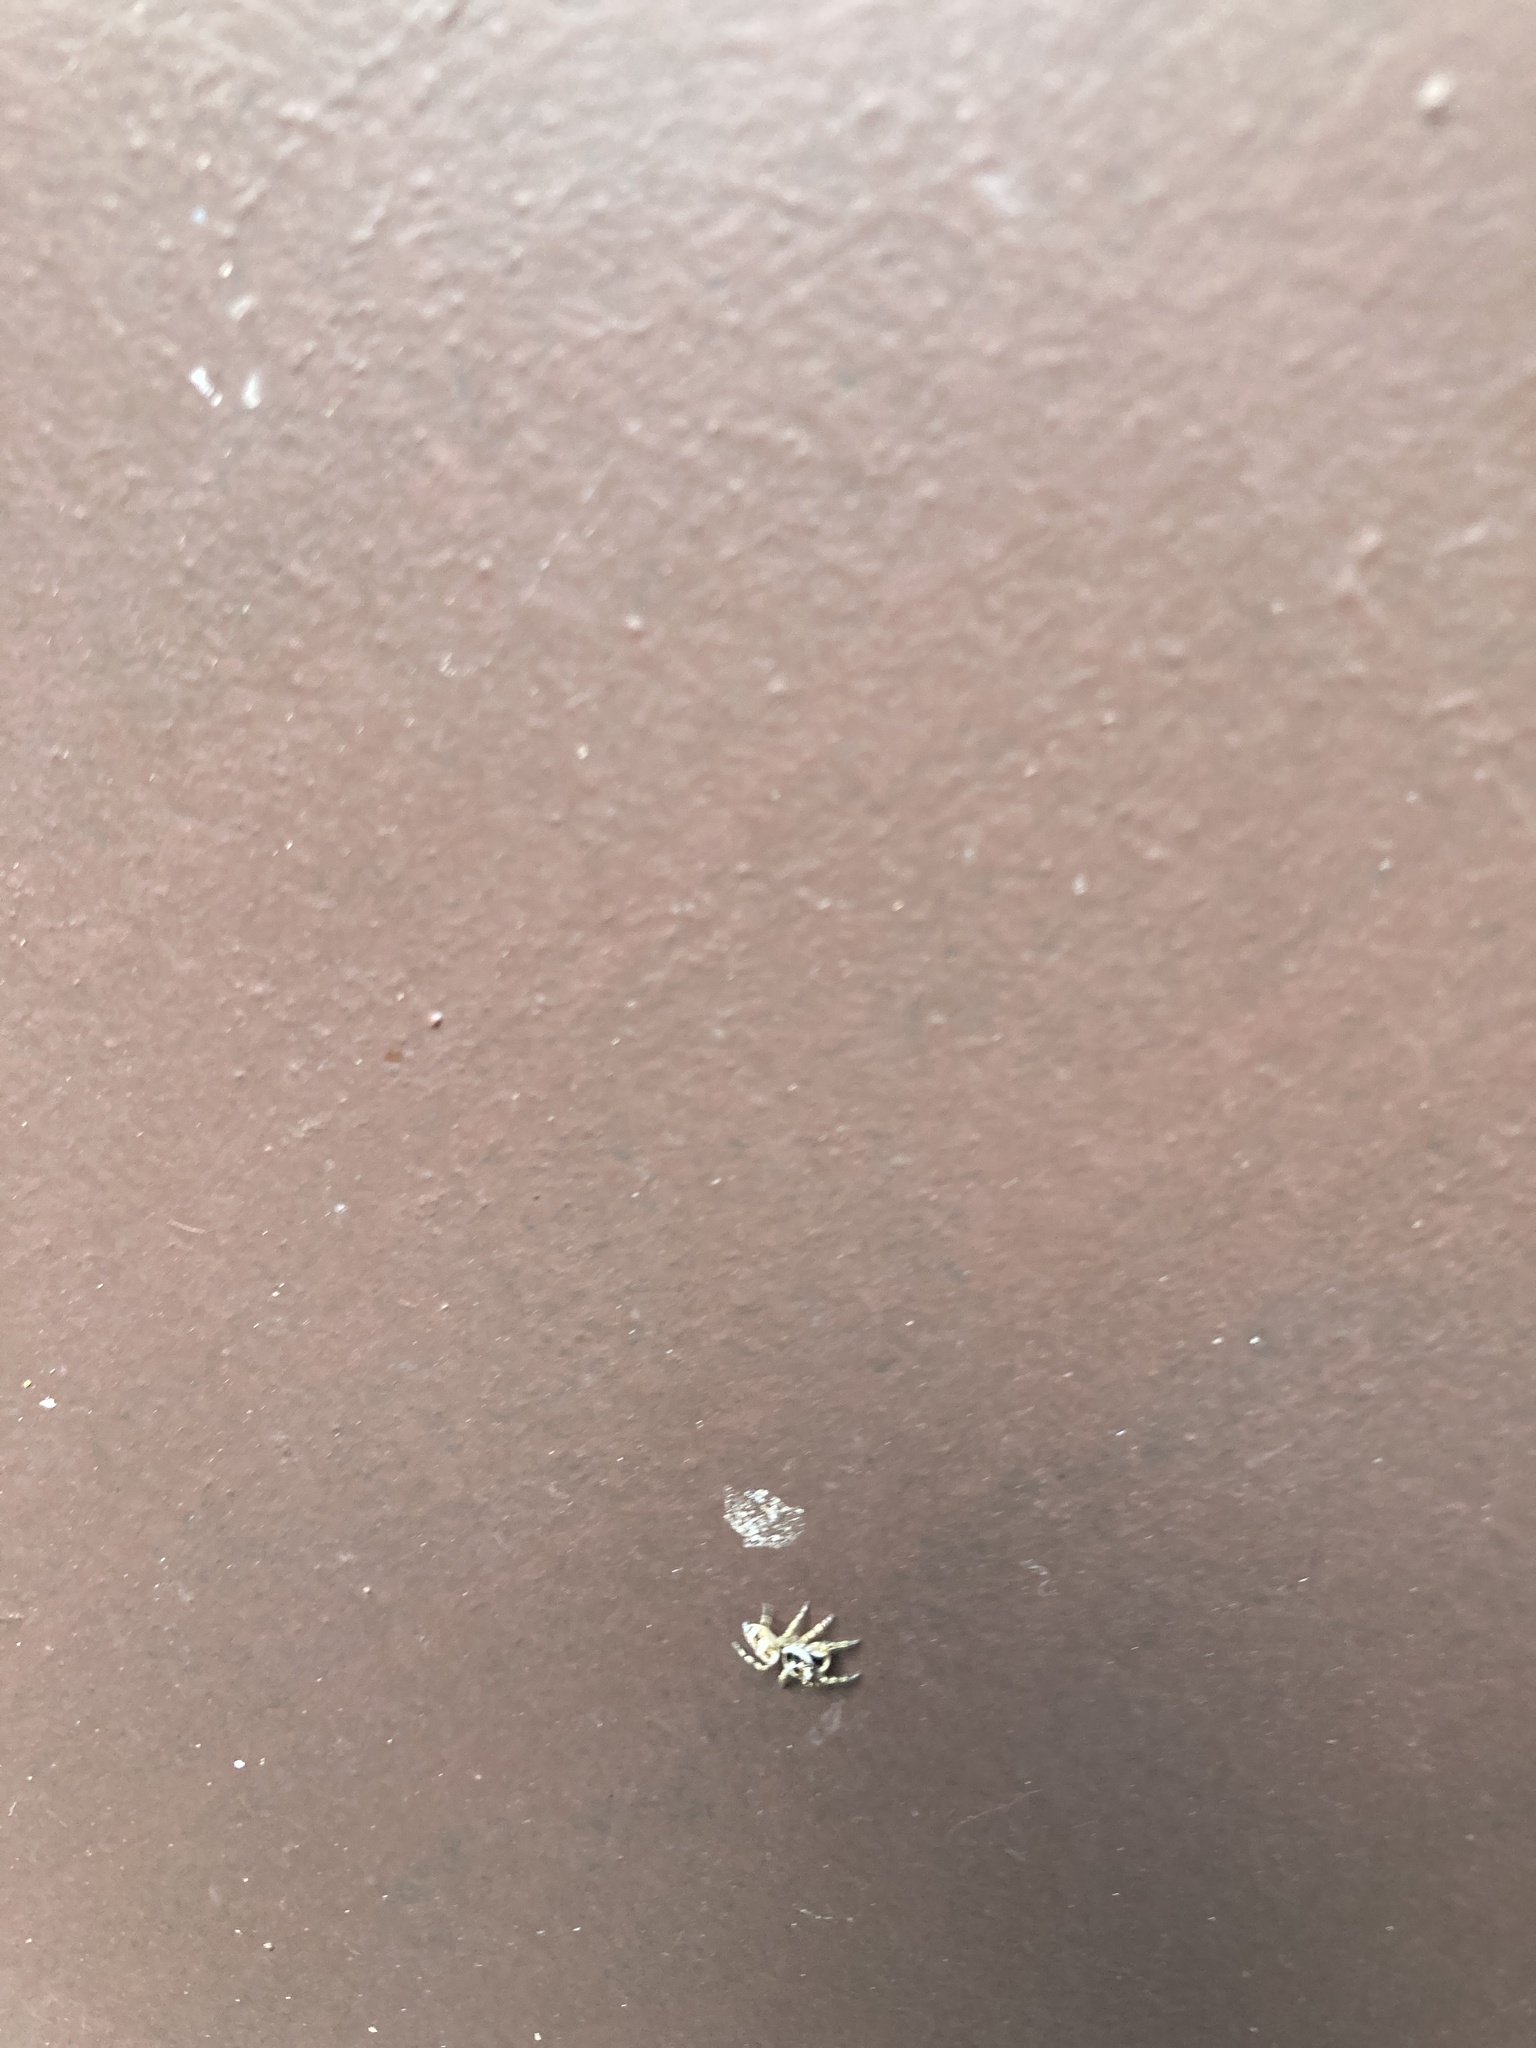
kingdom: Animalia
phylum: Arthropoda
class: Arachnida
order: Araneae
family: Salticidae
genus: Salticus
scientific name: Salticus scenicus
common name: Zebra jumper
